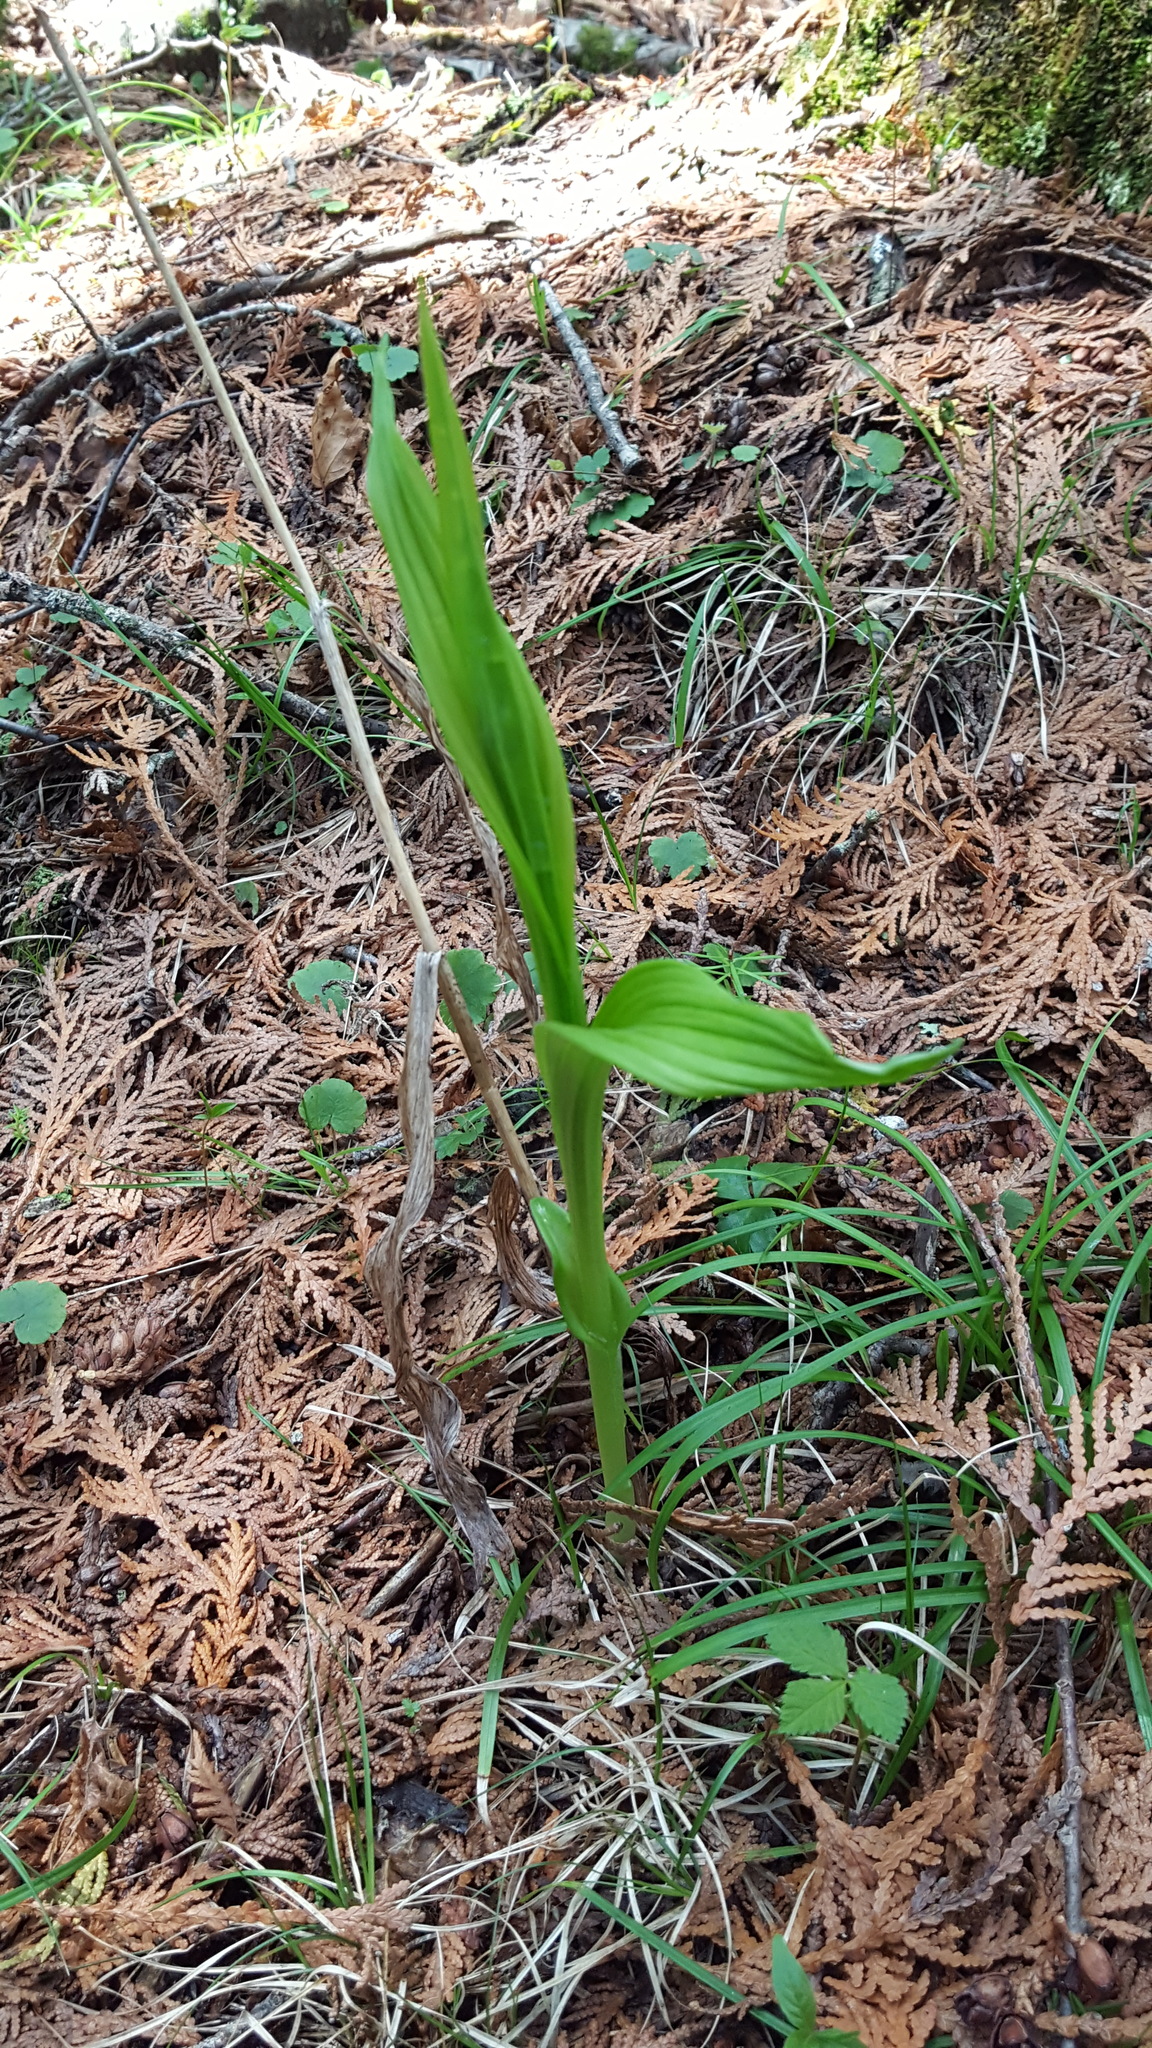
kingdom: Plantae
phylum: Tracheophyta
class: Liliopsida
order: Asparagales
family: Orchidaceae
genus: Cypripedium
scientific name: Cypripedium parviflorum
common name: American yellow lady's-slipper
